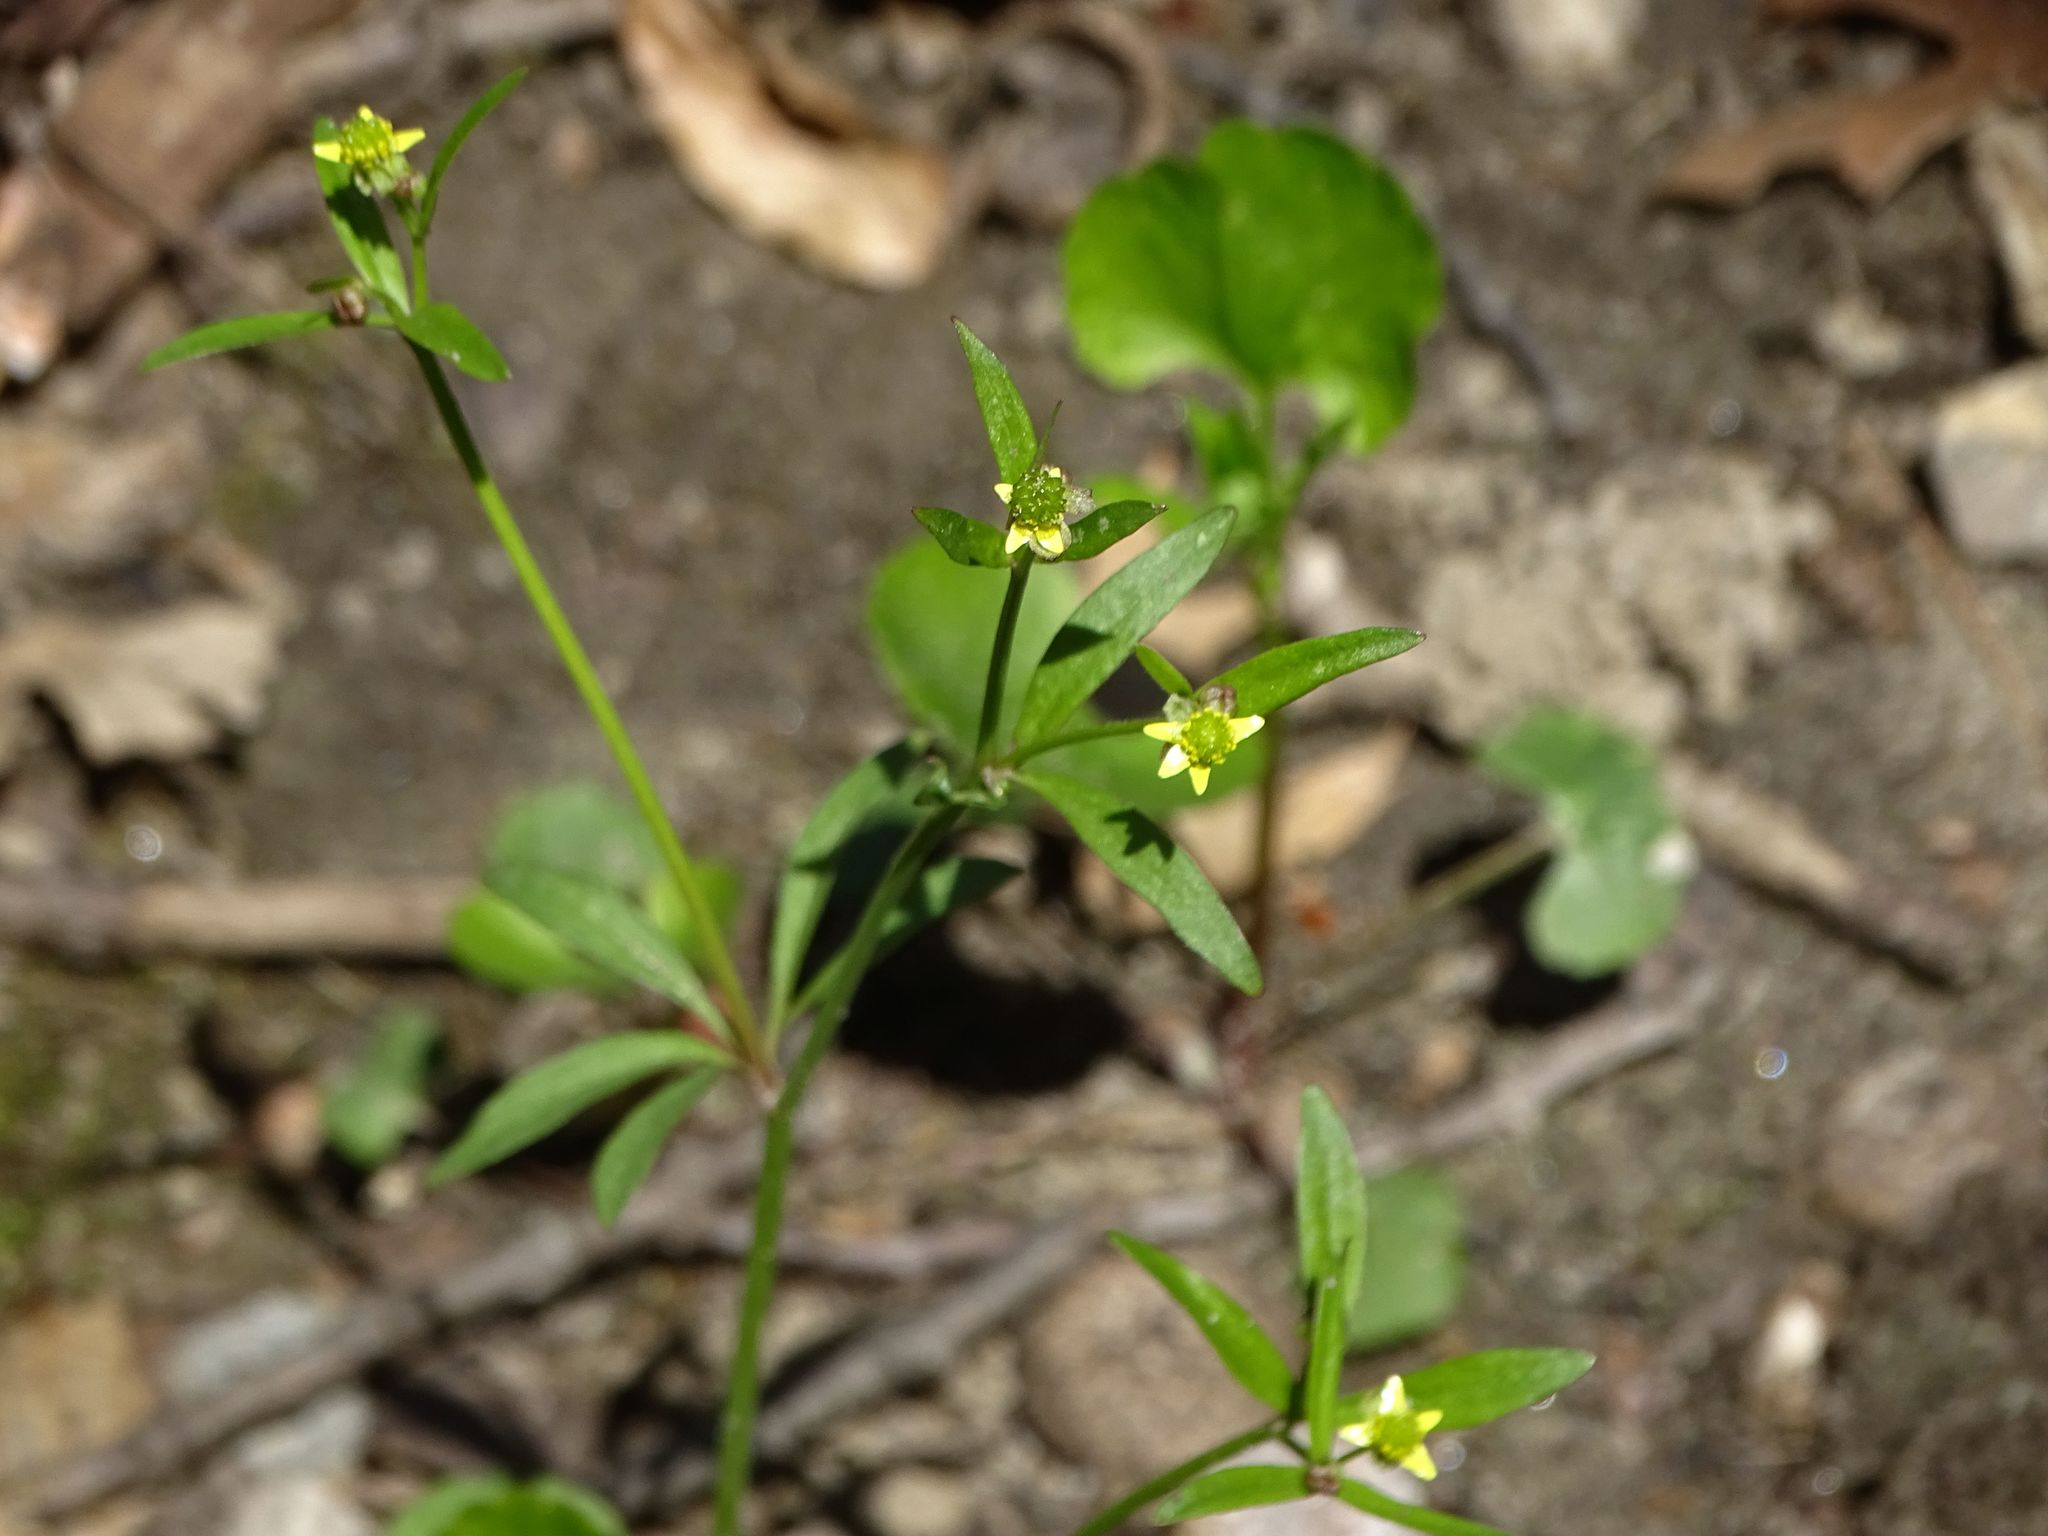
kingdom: Plantae
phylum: Tracheophyta
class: Magnoliopsida
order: Ranunculales
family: Ranunculaceae
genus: Ranunculus
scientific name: Ranunculus abortivus
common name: Early wood buttercup
